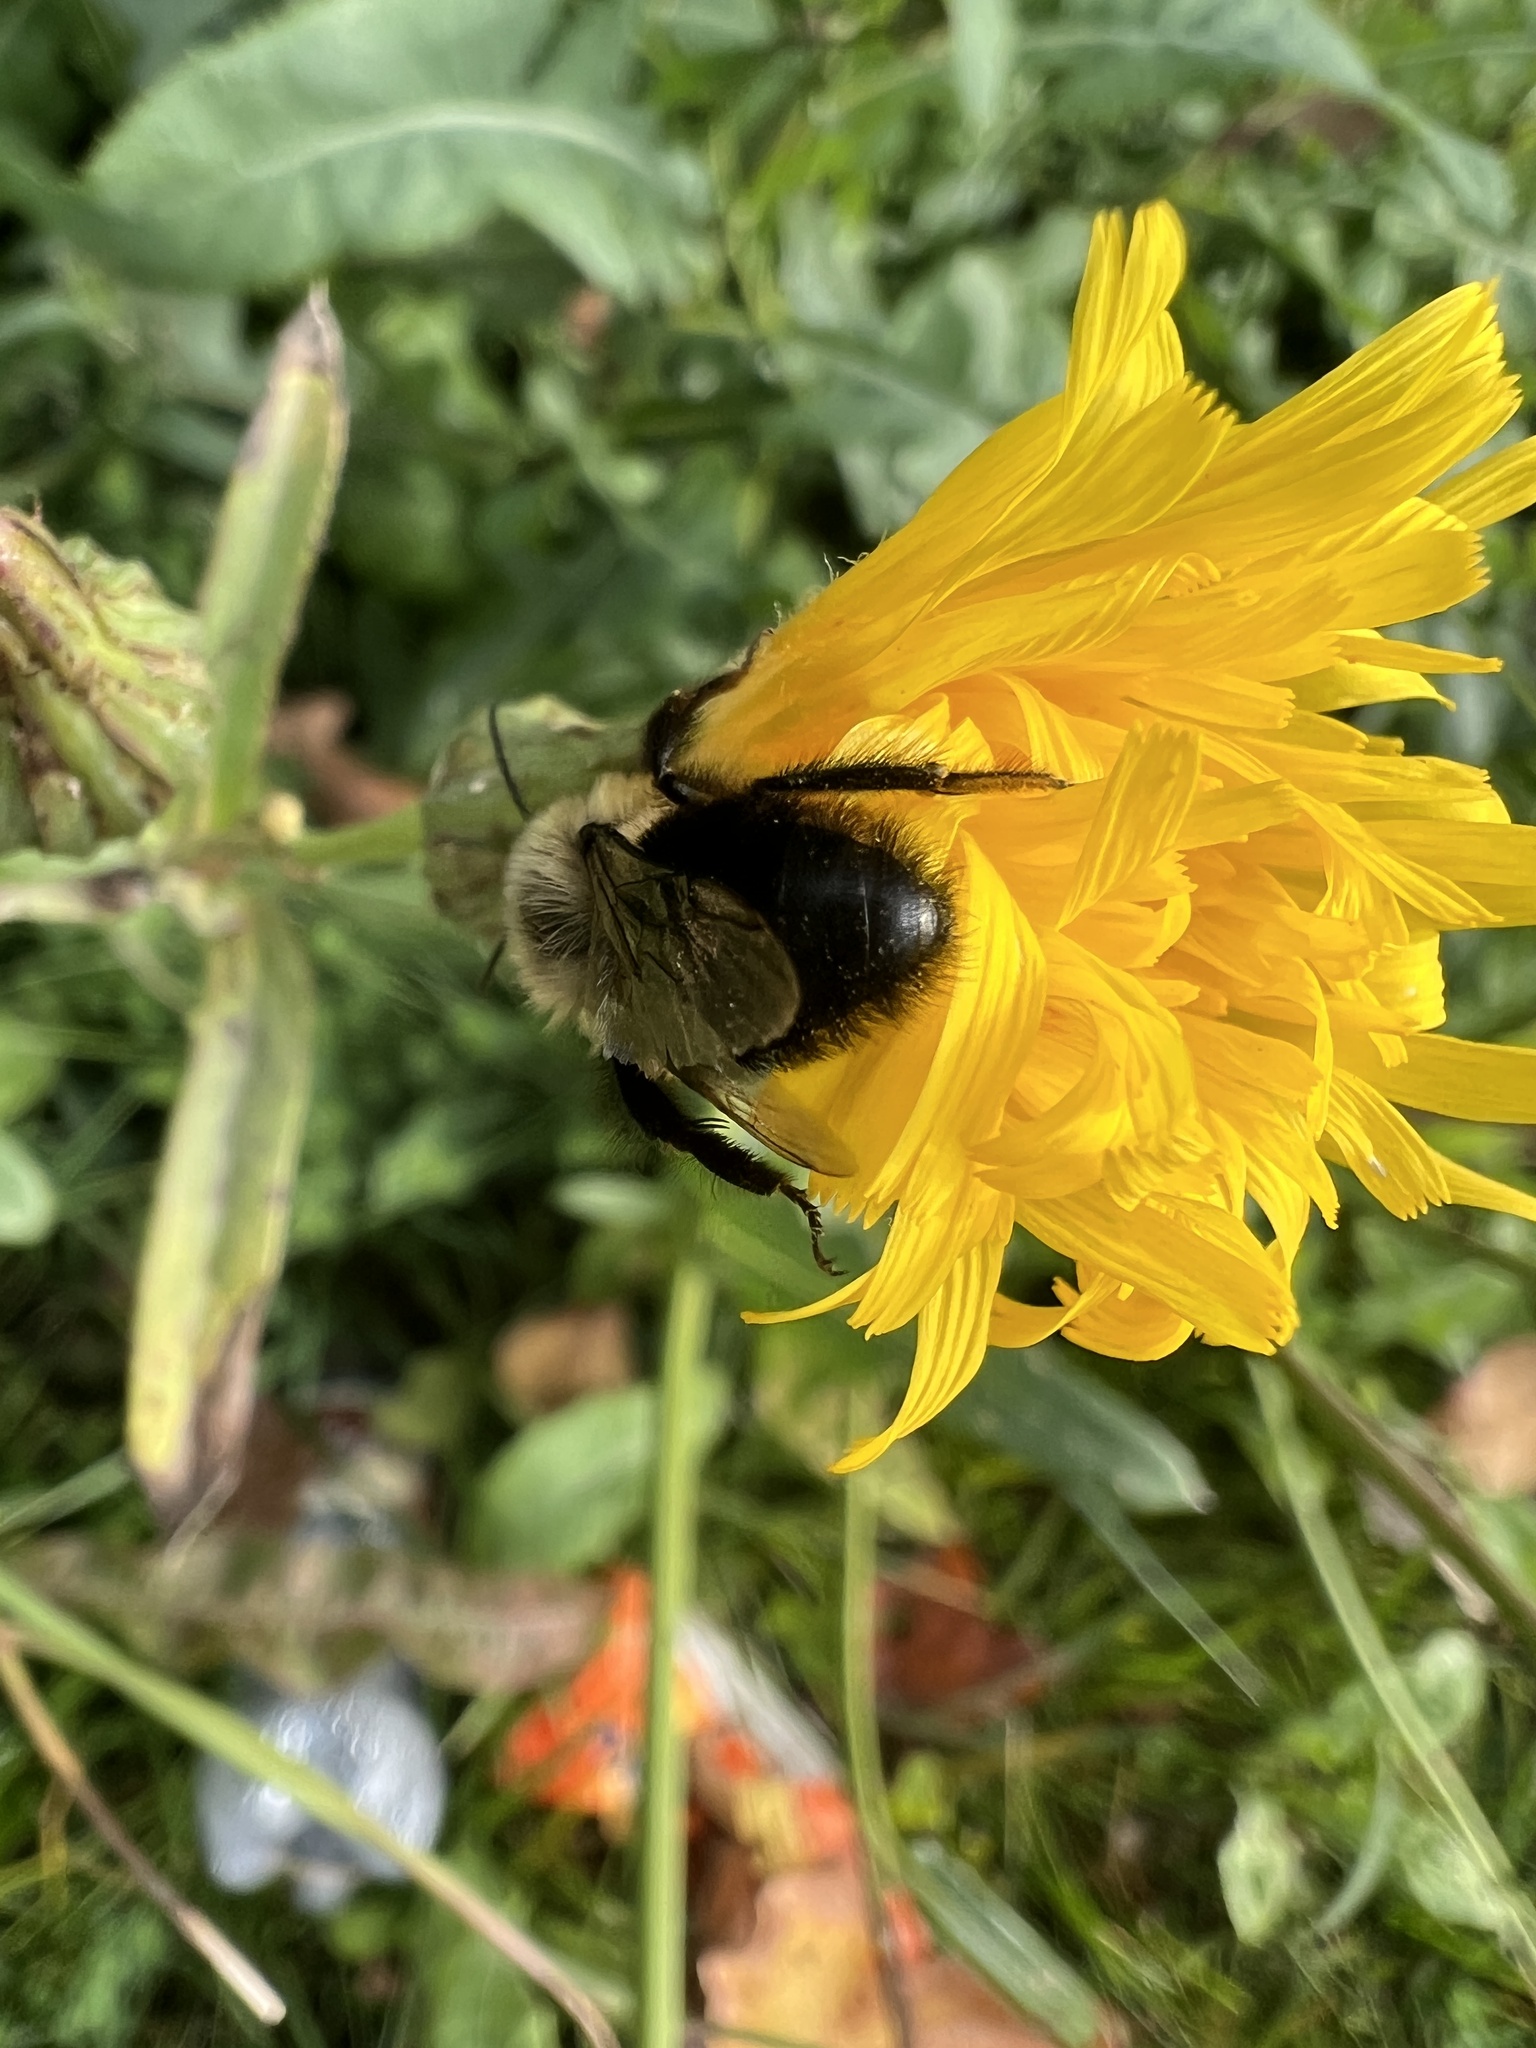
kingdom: Animalia
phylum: Arthropoda
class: Insecta
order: Hymenoptera
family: Apidae
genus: Bombus
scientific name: Bombus impatiens
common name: Common eastern bumble bee
